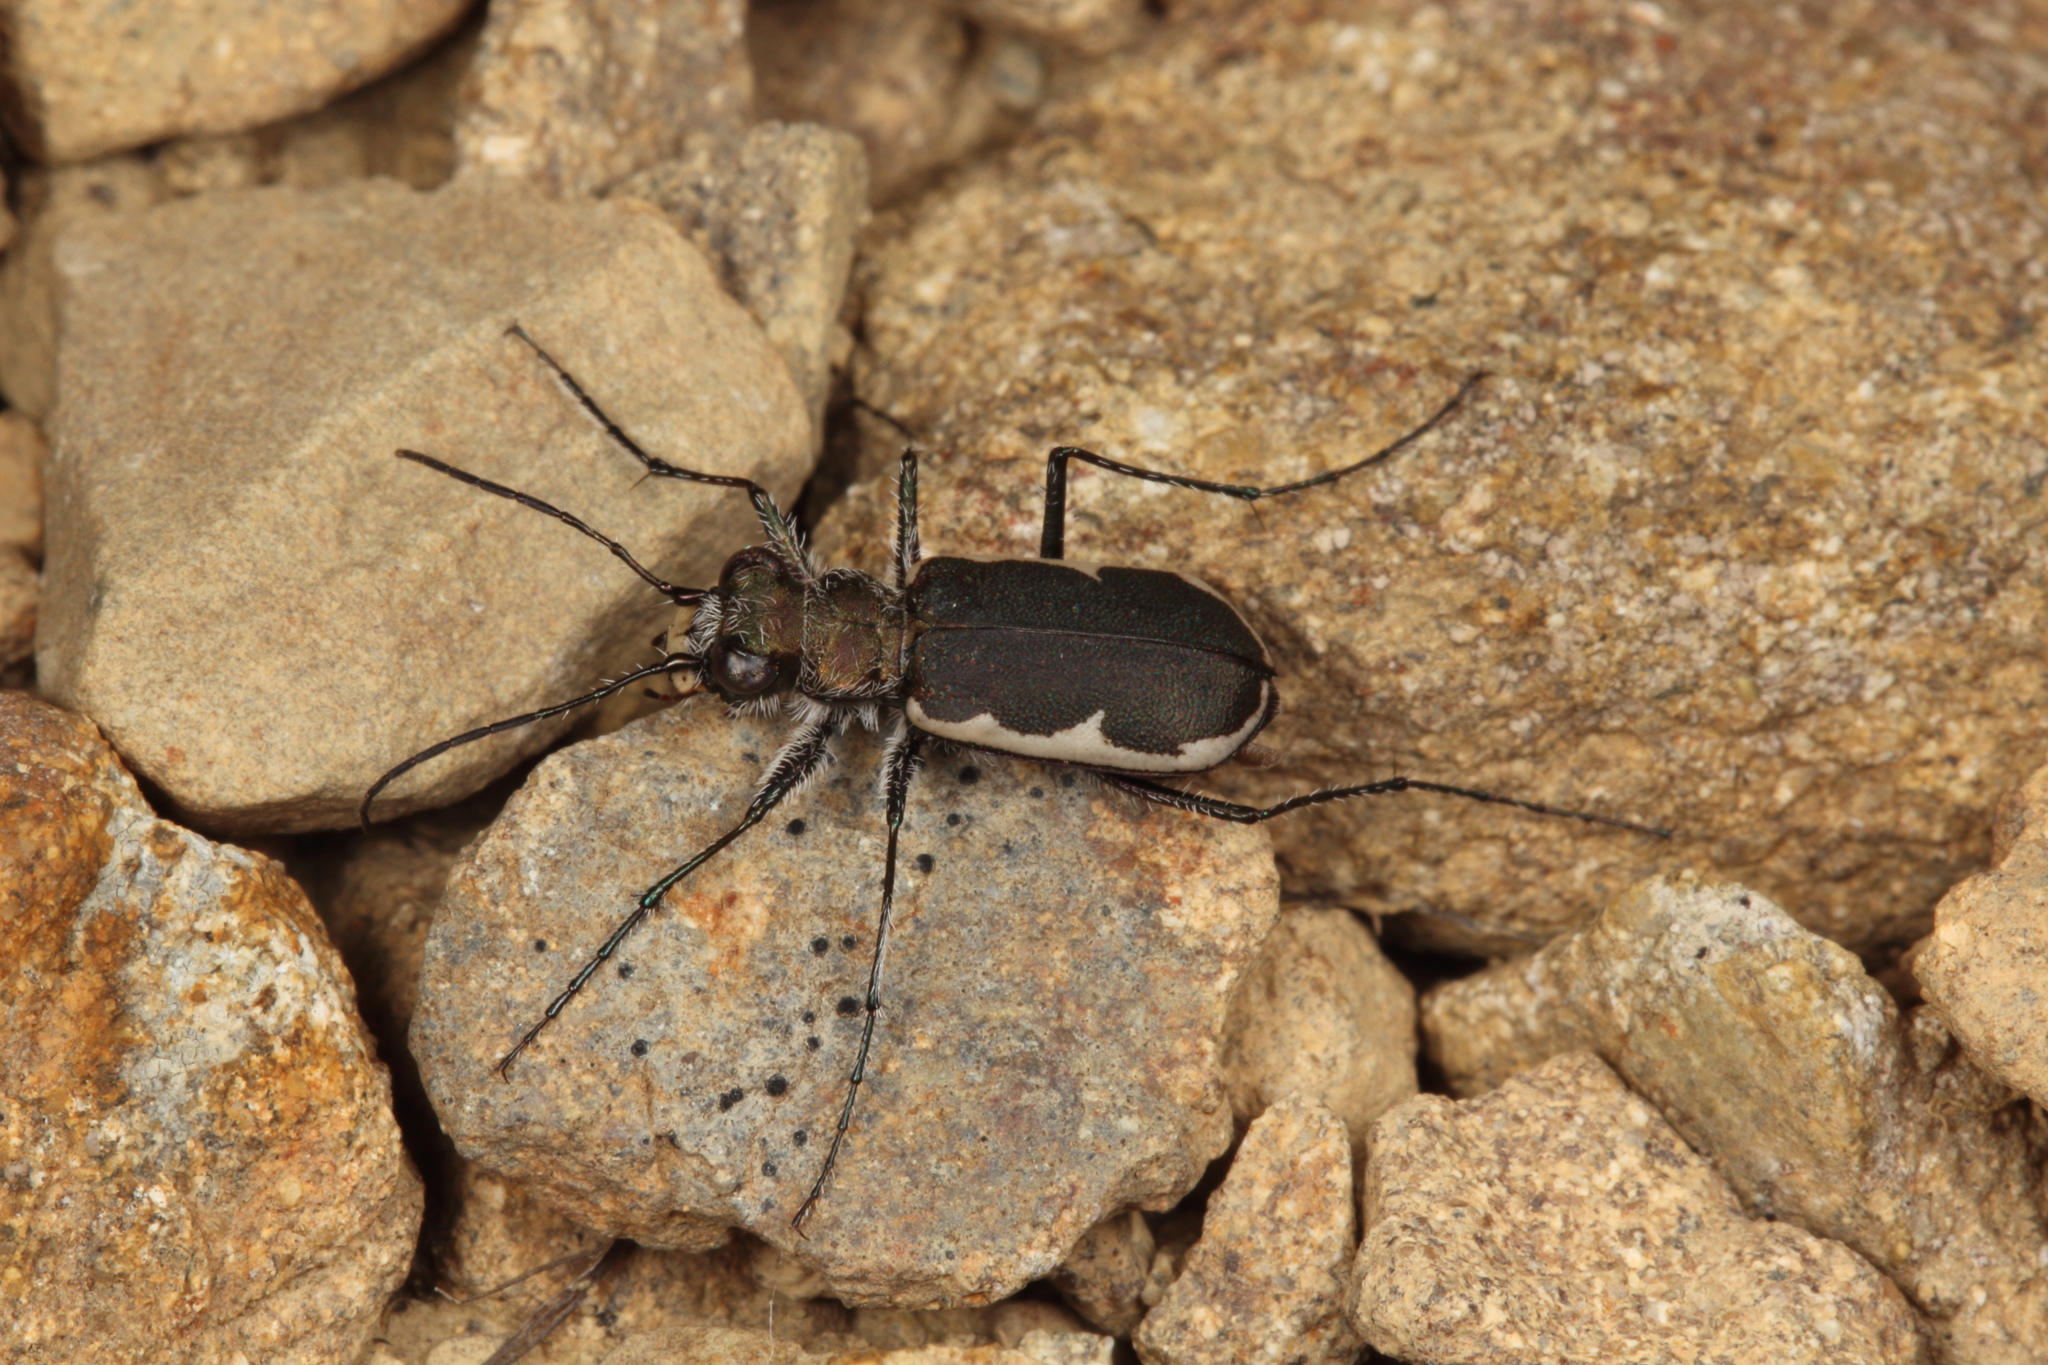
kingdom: Animalia
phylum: Arthropoda
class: Insecta
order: Coleoptera
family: Carabidae
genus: Zecicindela
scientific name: Zecicindela hamiltoni
